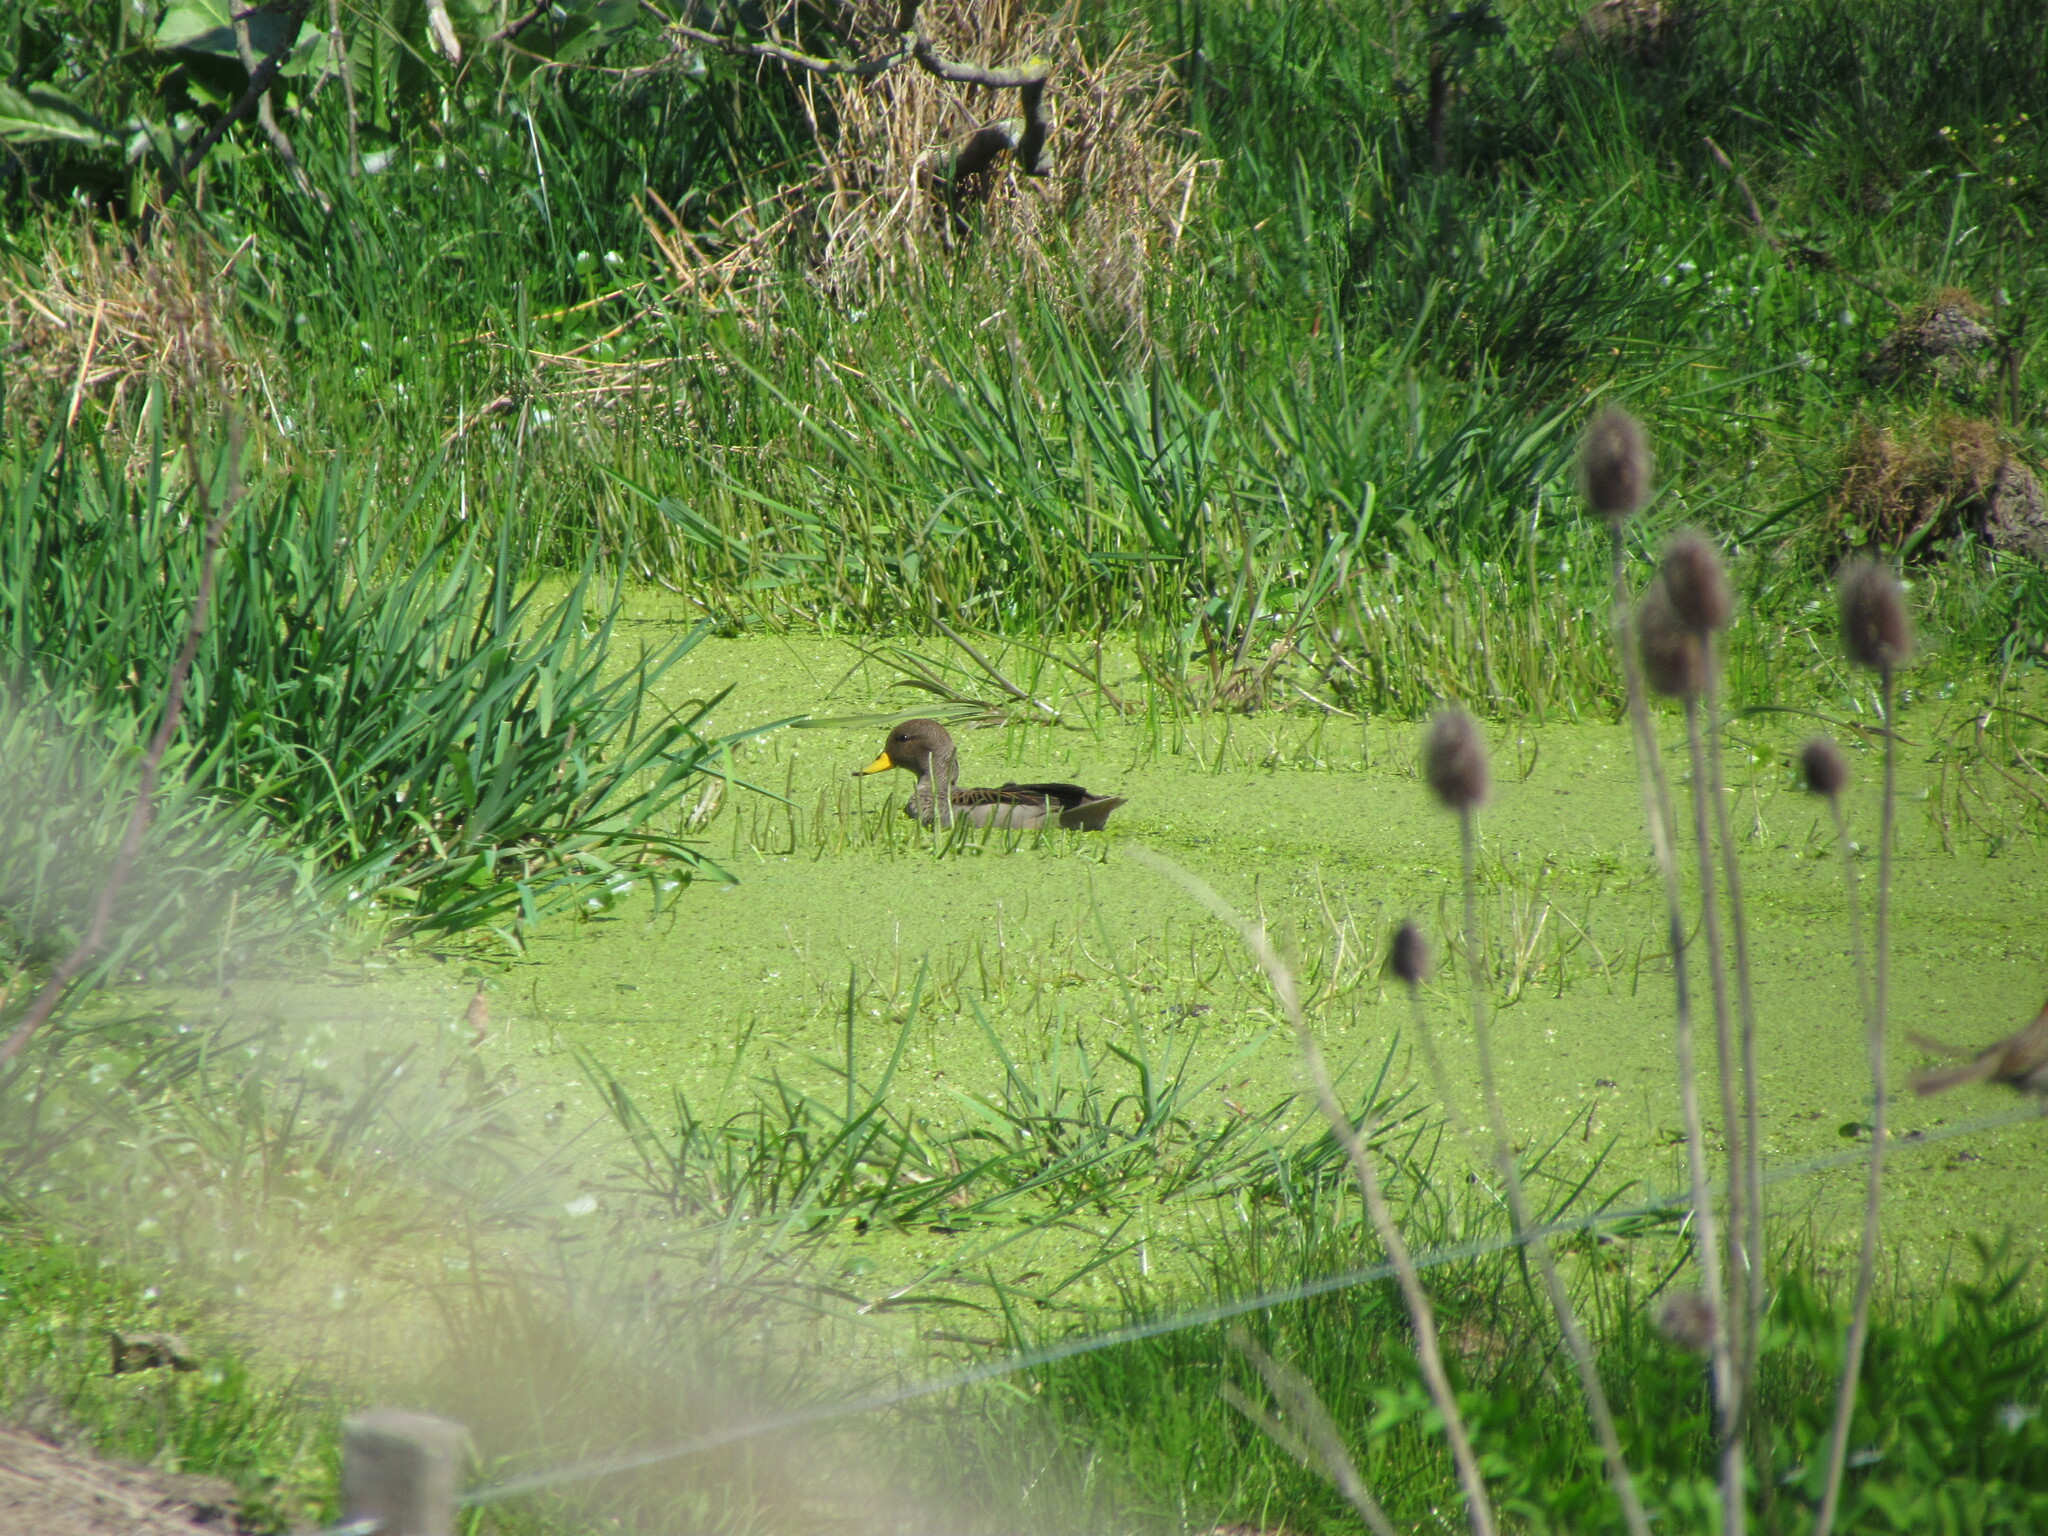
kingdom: Animalia
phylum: Chordata
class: Aves
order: Anseriformes
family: Anatidae
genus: Anas
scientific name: Anas flavirostris
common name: Yellow-billed teal
